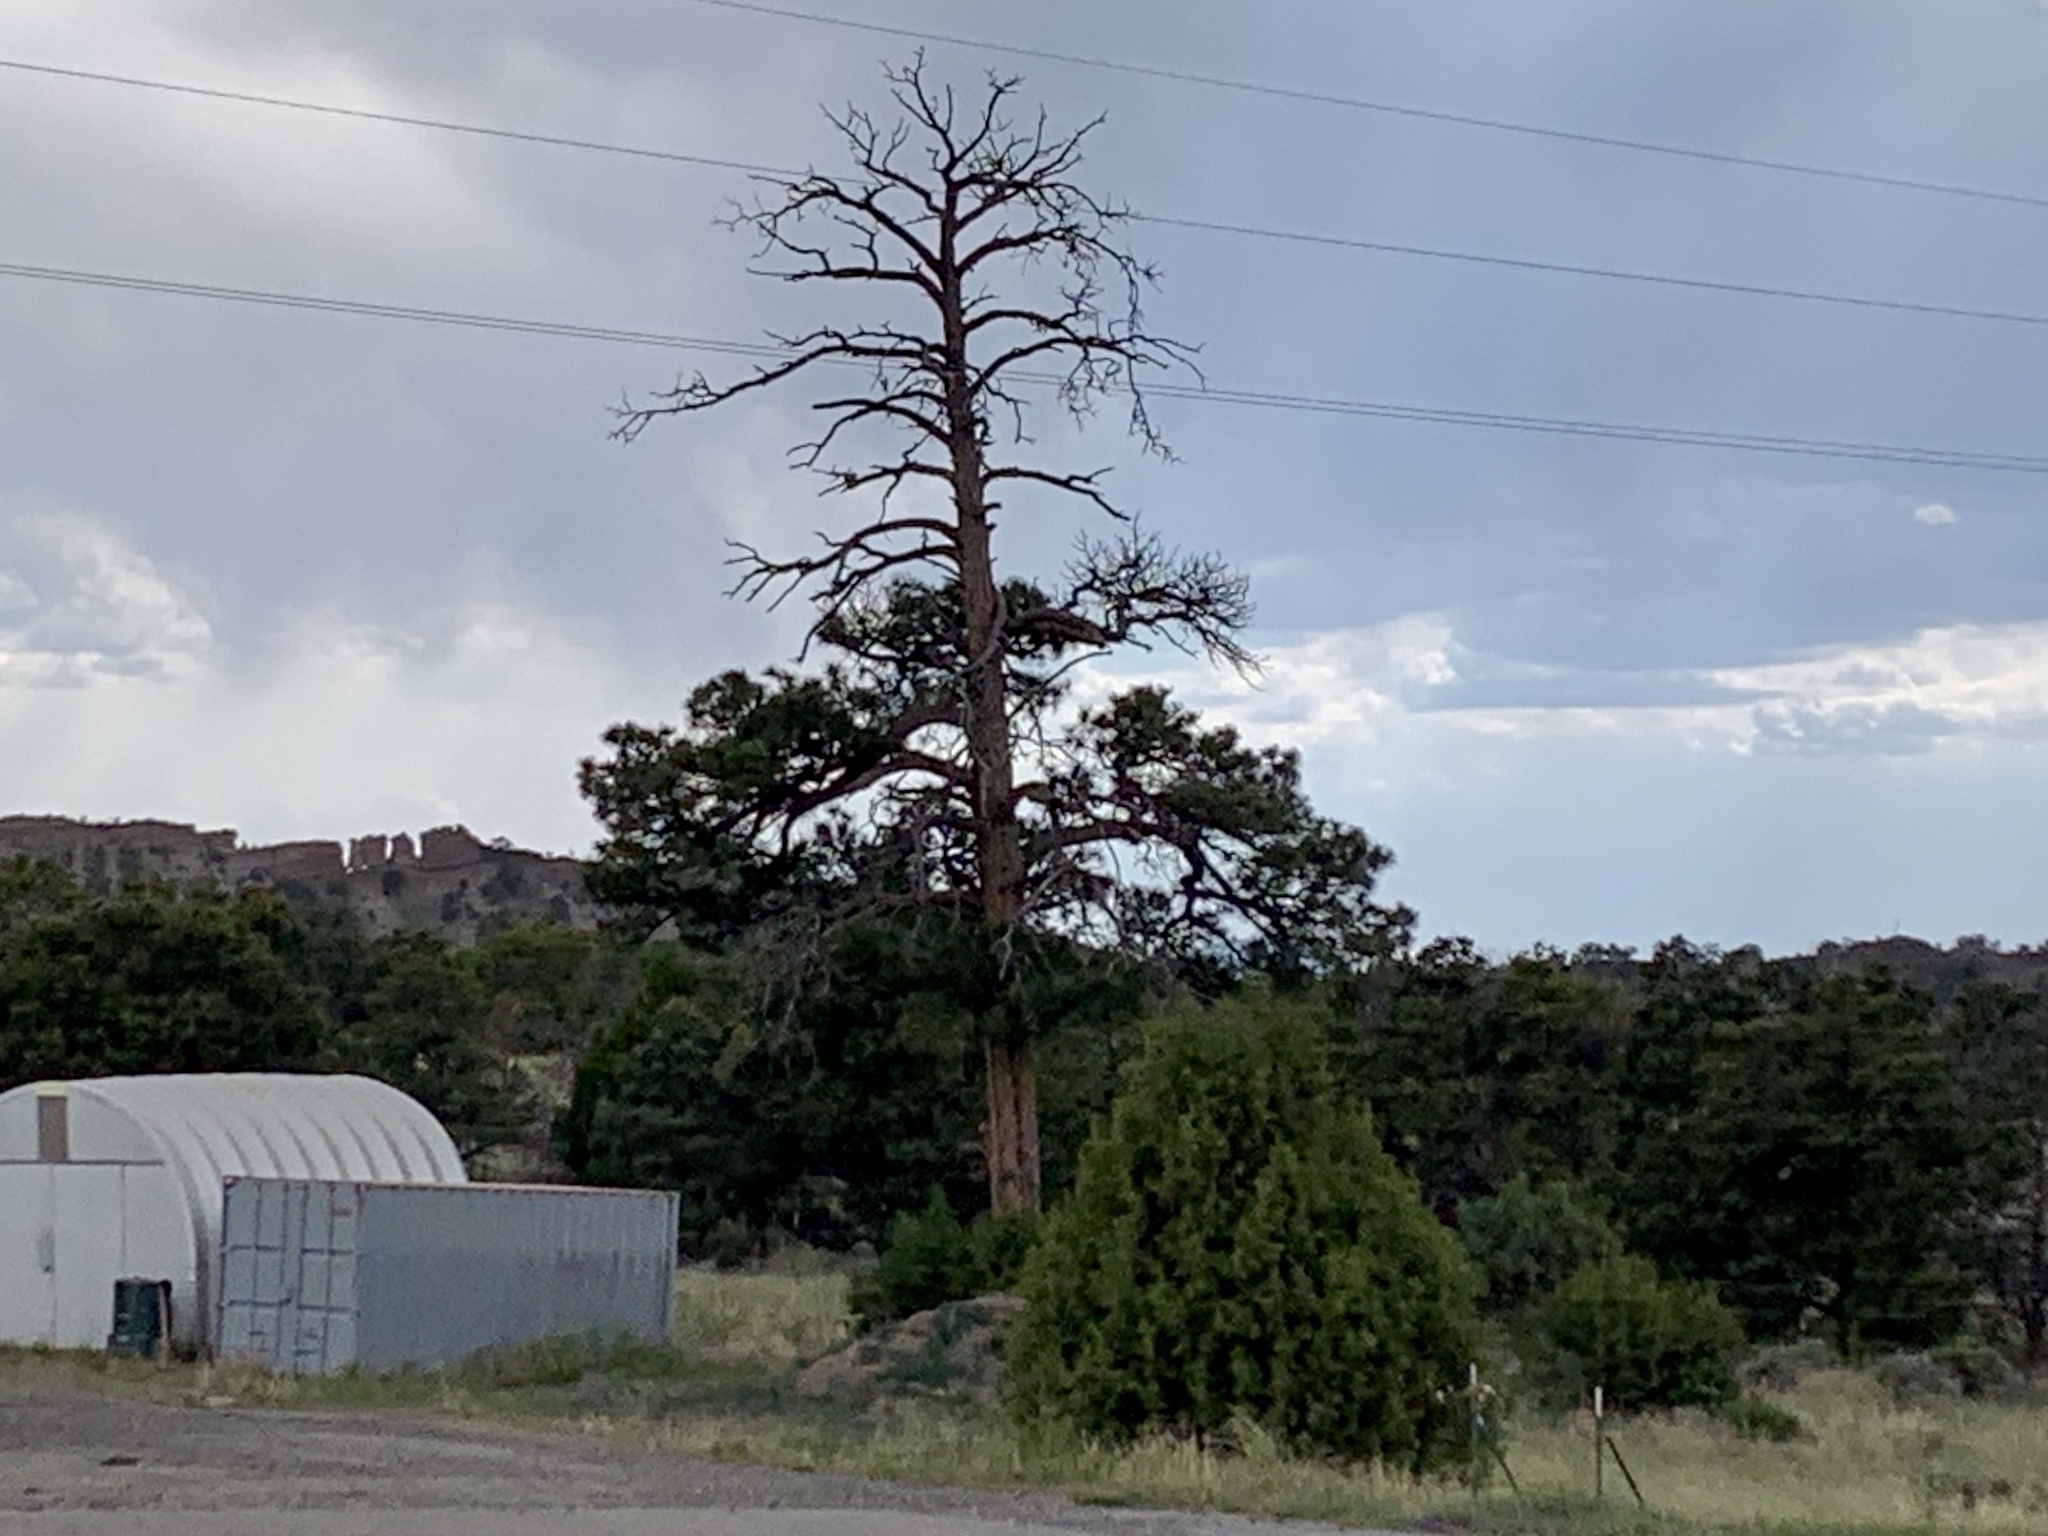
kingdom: Plantae
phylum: Tracheophyta
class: Pinopsida
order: Pinales
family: Pinaceae
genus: Pinus
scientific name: Pinus ponderosa
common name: Western yellow-pine
